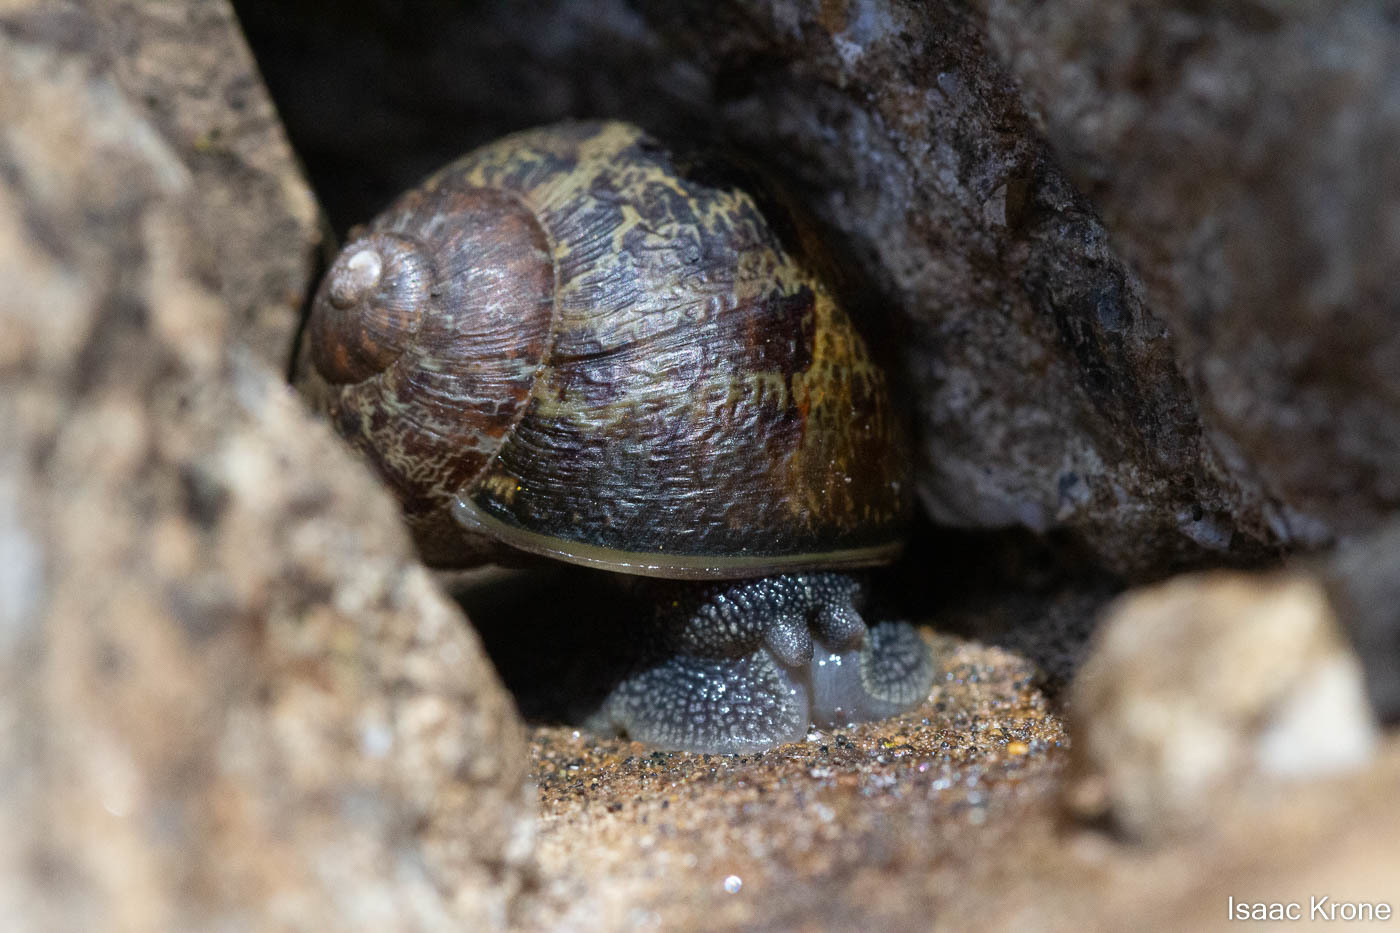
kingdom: Animalia
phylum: Mollusca
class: Gastropoda
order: Stylommatophora
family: Helicidae
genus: Cornu
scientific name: Cornu aspersum
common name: Brown garden snail
